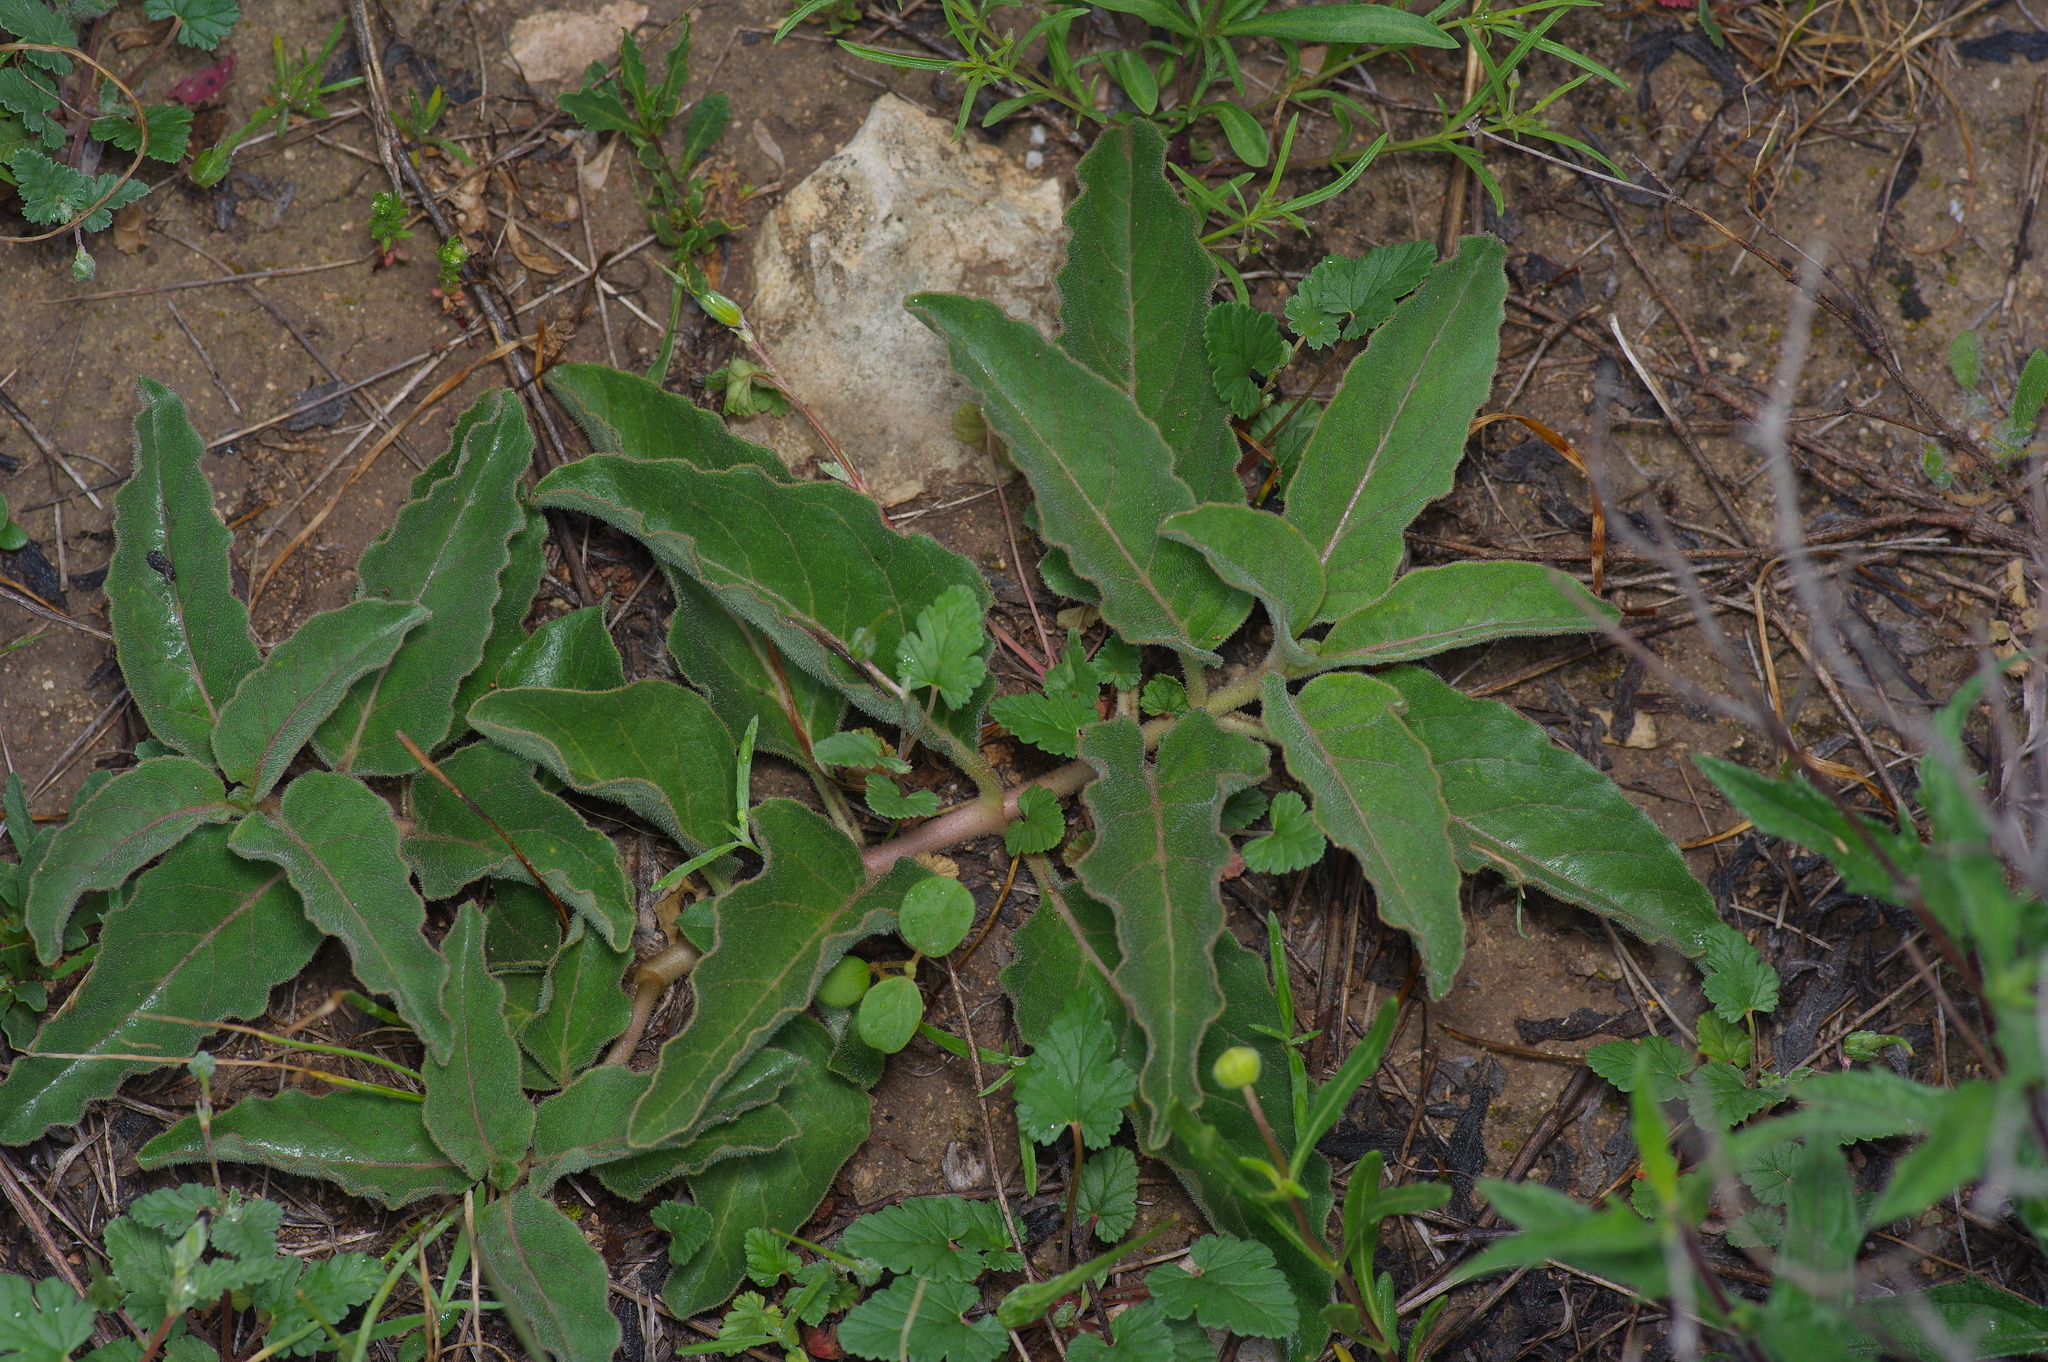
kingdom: Plantae
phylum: Tracheophyta
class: Magnoliopsida
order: Gentianales
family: Apocynaceae
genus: Asclepias
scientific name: Asclepias oenotheroides
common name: Zizotes milkweed
